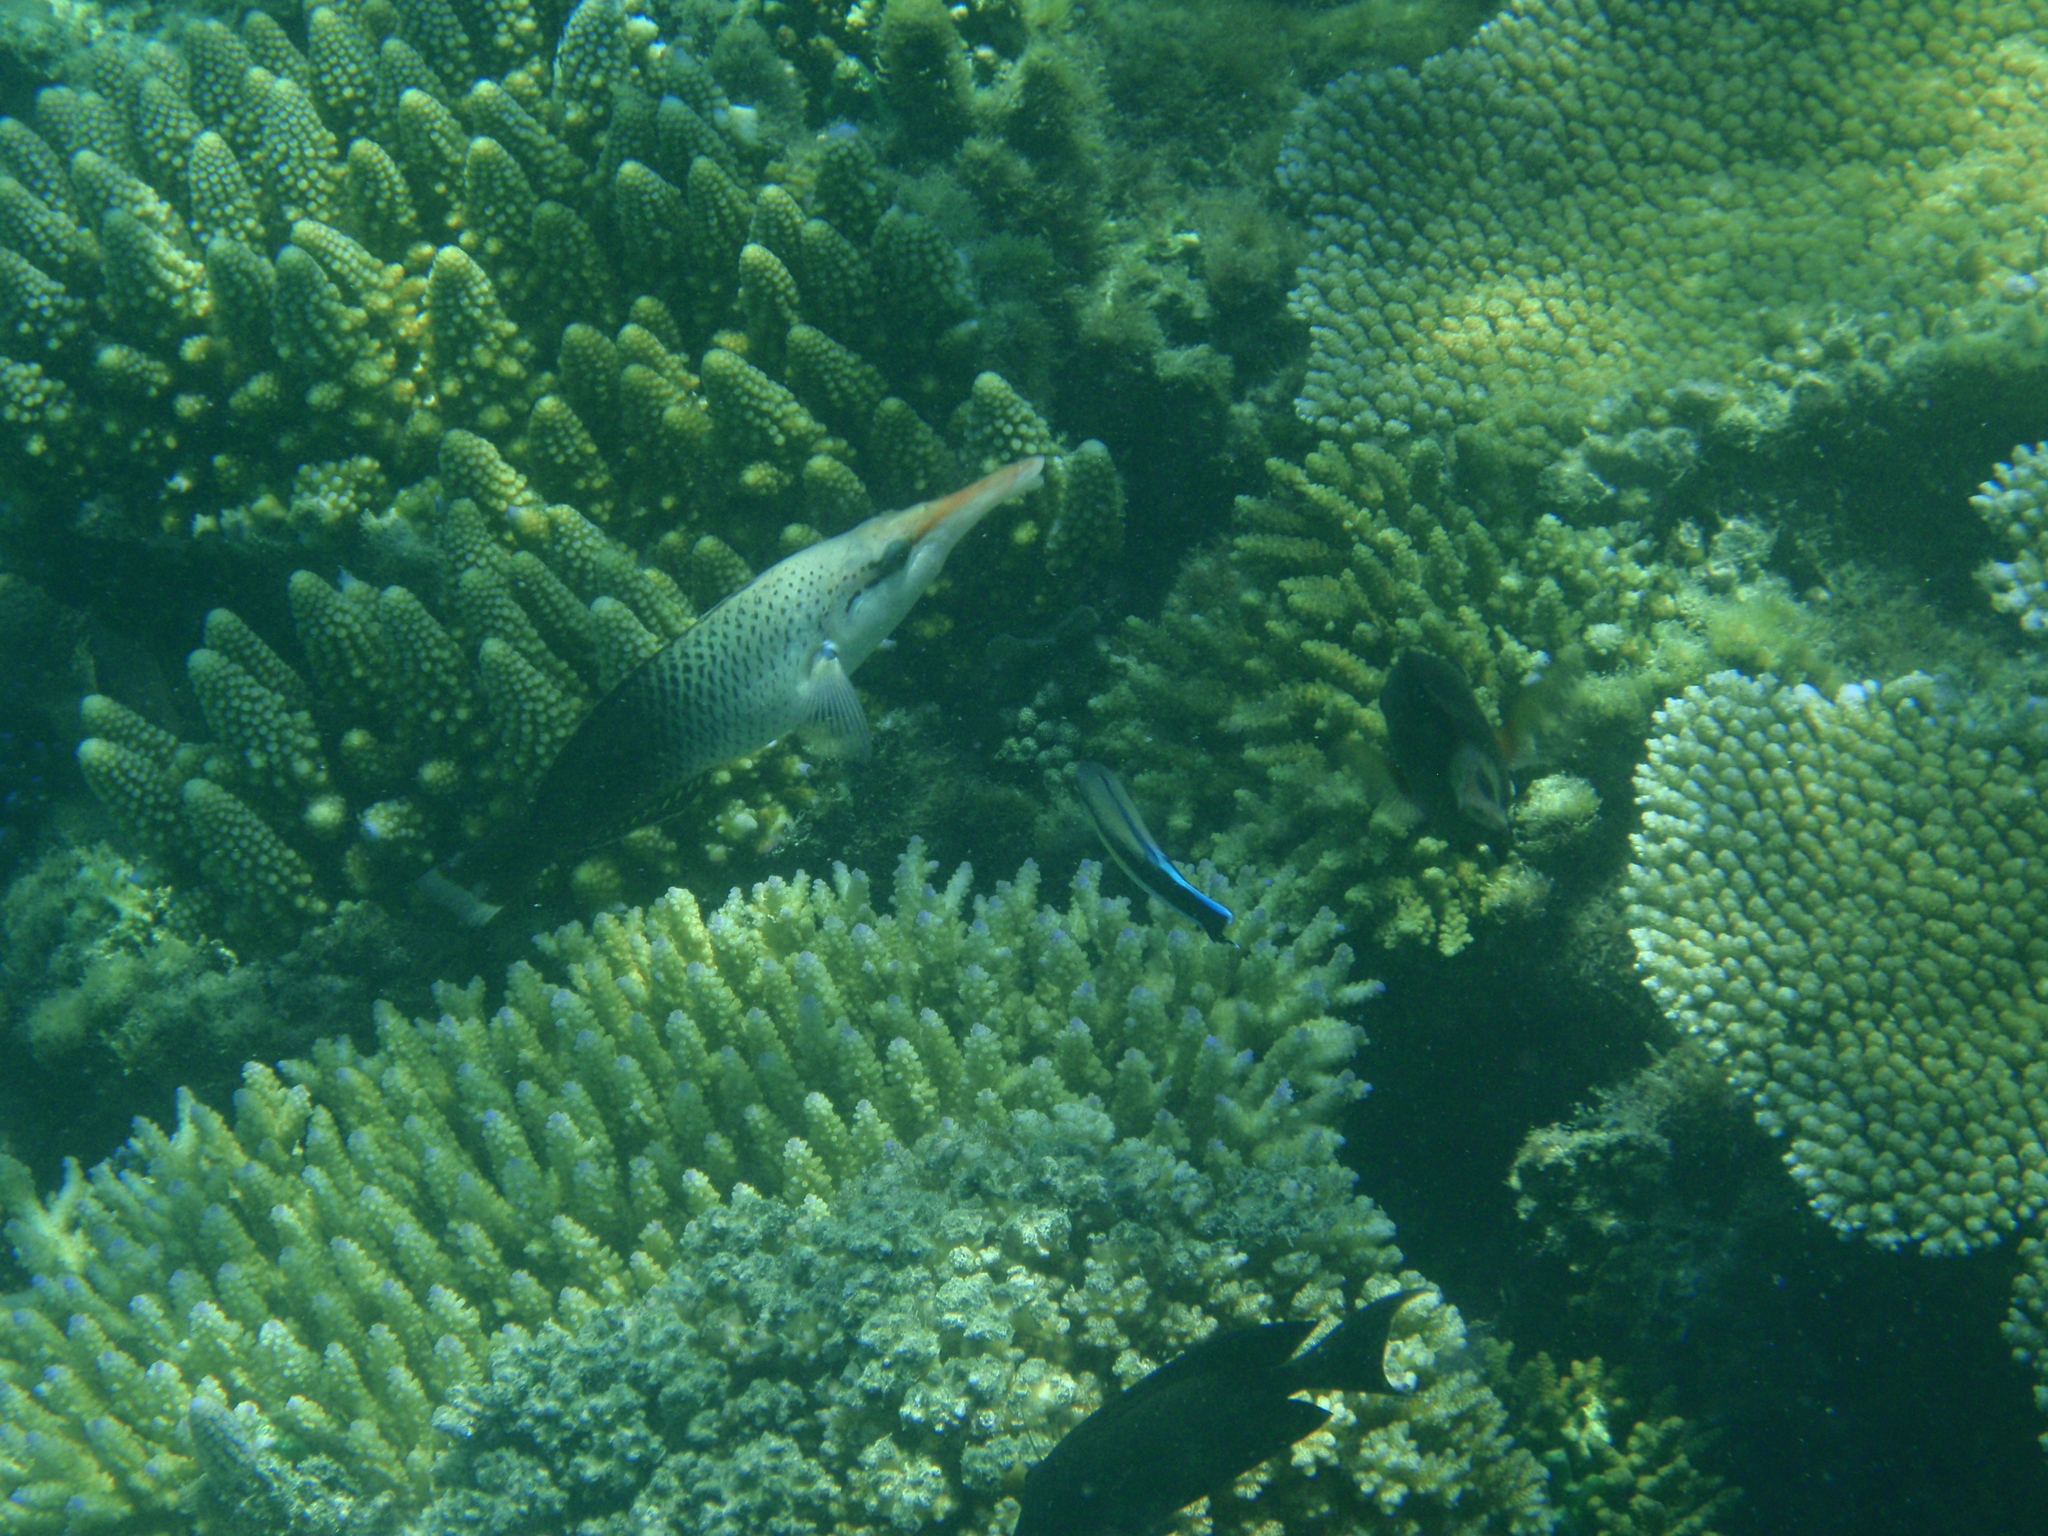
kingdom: Animalia
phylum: Chordata
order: Perciformes
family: Labridae
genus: Gomphosus
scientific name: Gomphosus varius
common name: Bird wrasse
